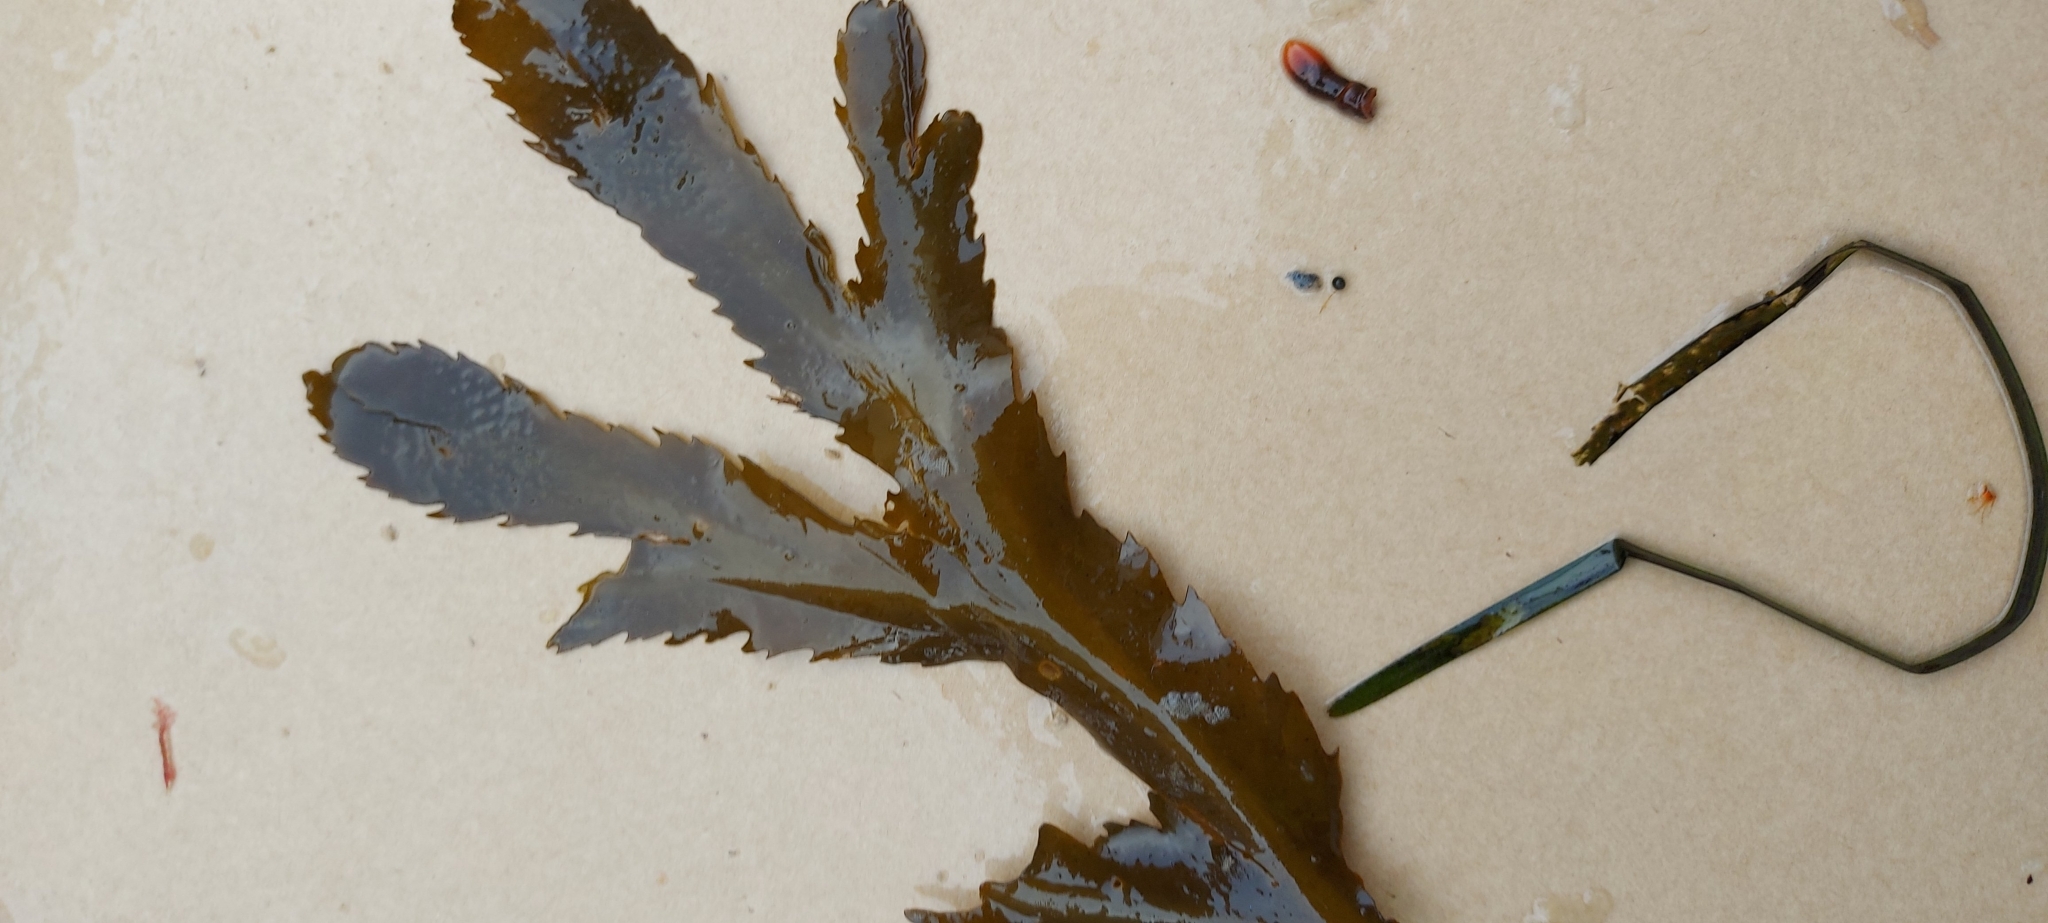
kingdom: Chromista
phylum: Ochrophyta
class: Phaeophyceae
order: Fucales
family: Fucaceae
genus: Fucus
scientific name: Fucus serratus
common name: Toothed wrack
